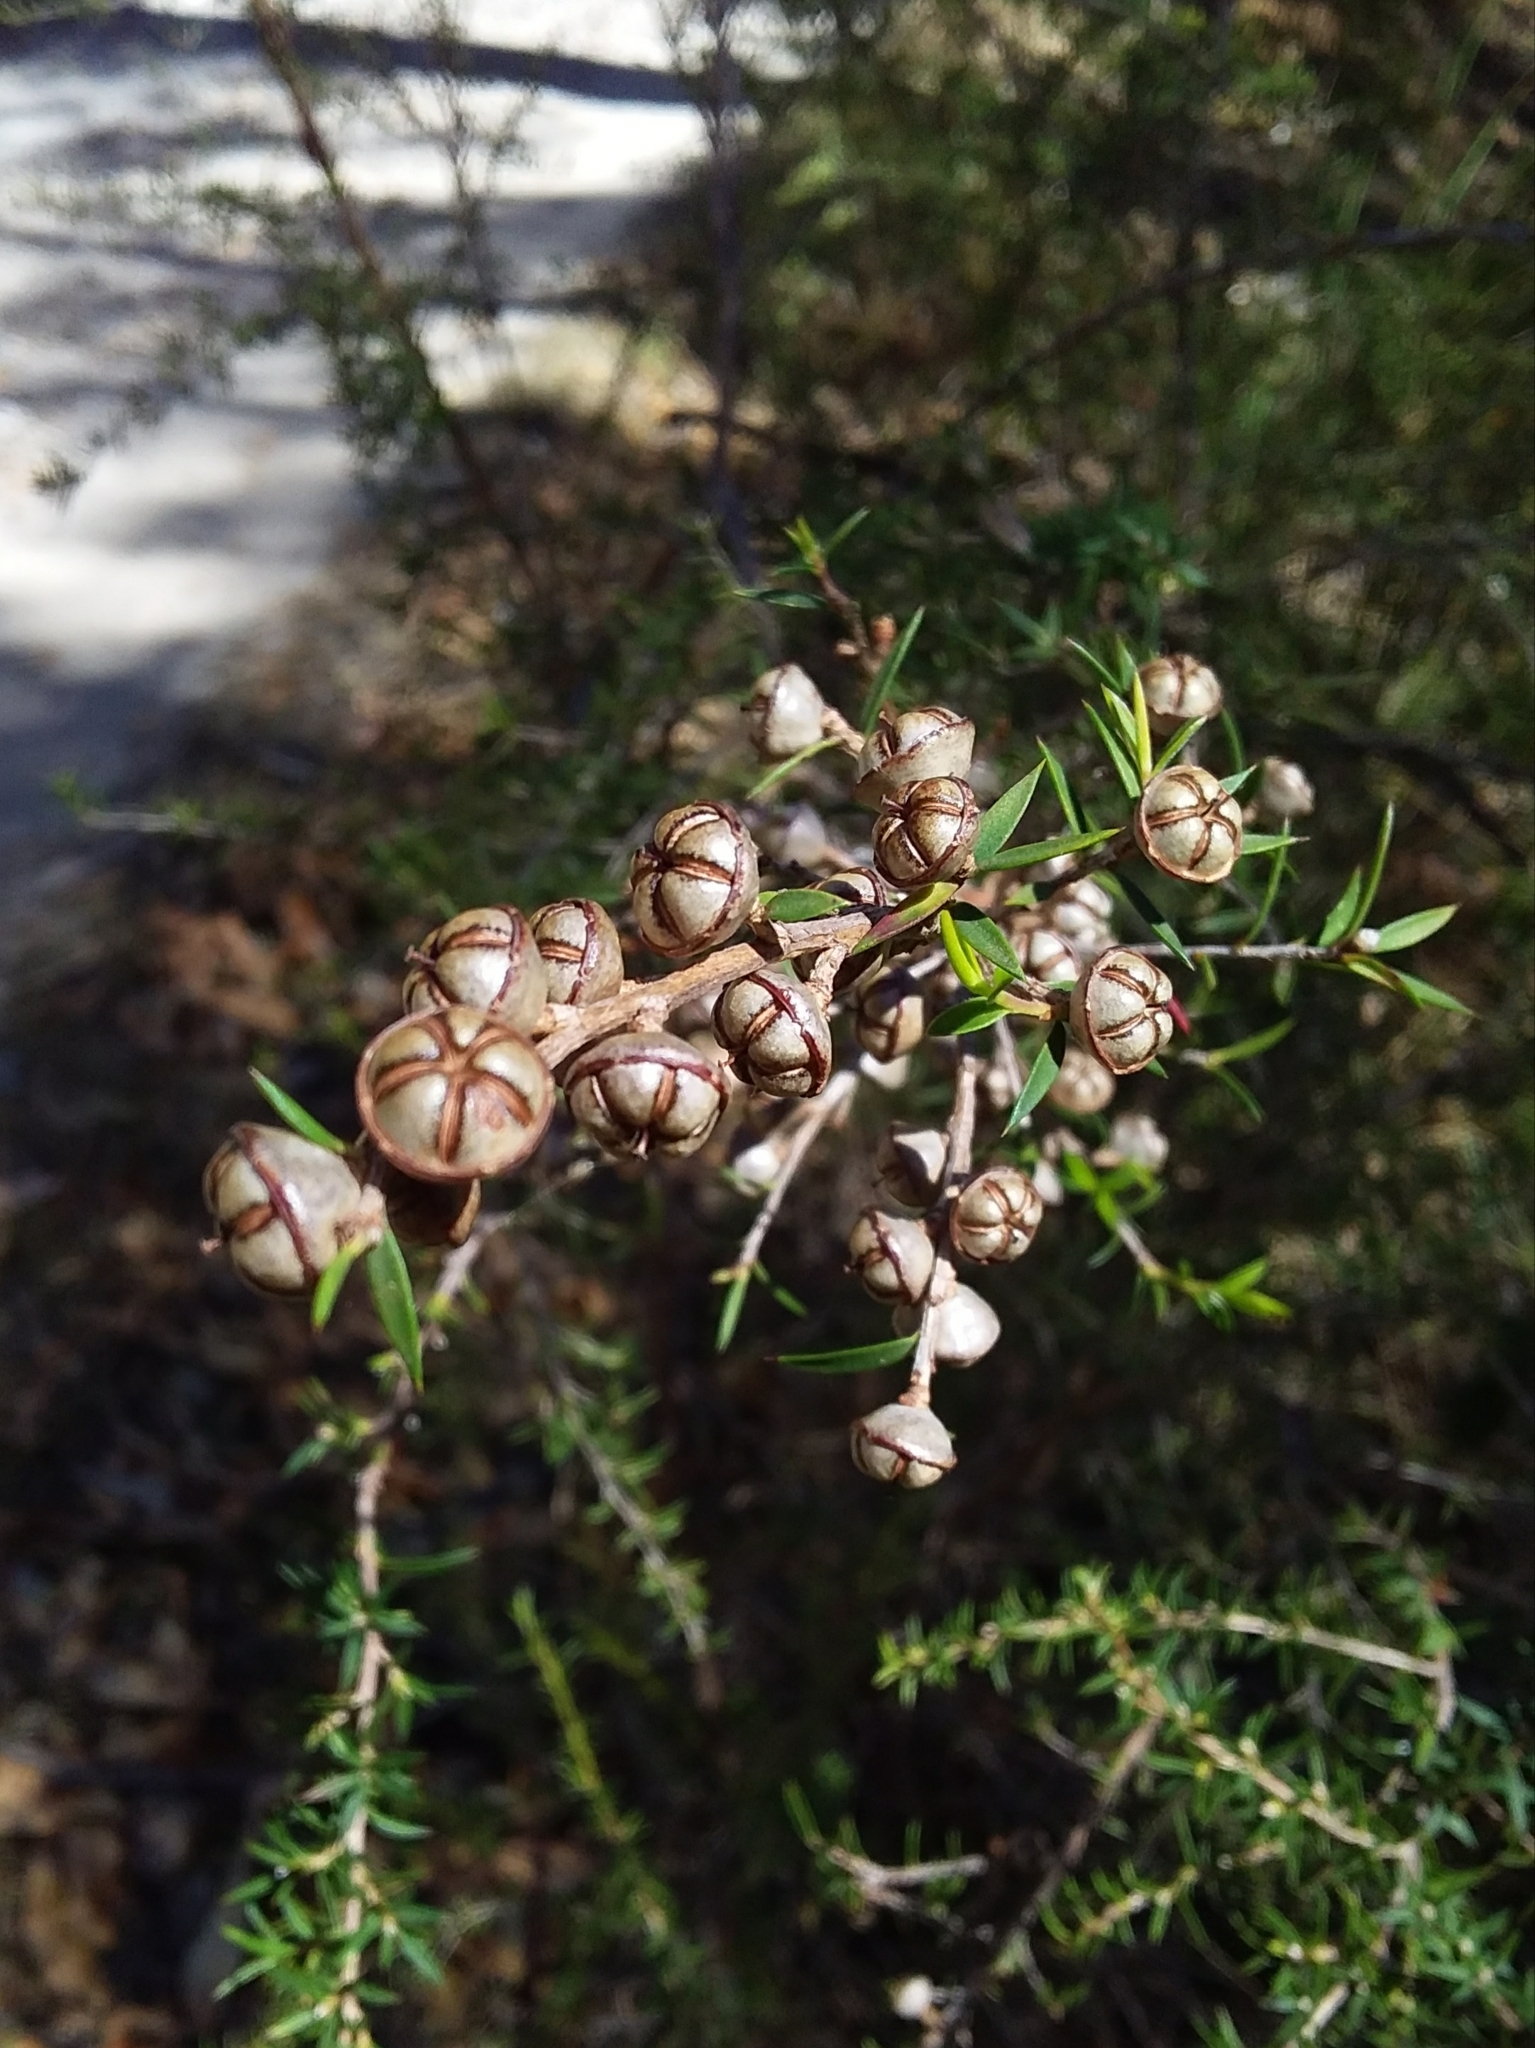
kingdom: Plantae
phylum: Tracheophyta
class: Magnoliopsida
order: Myrtales
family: Myrtaceae
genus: Leptospermum
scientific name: Leptospermum continentale
